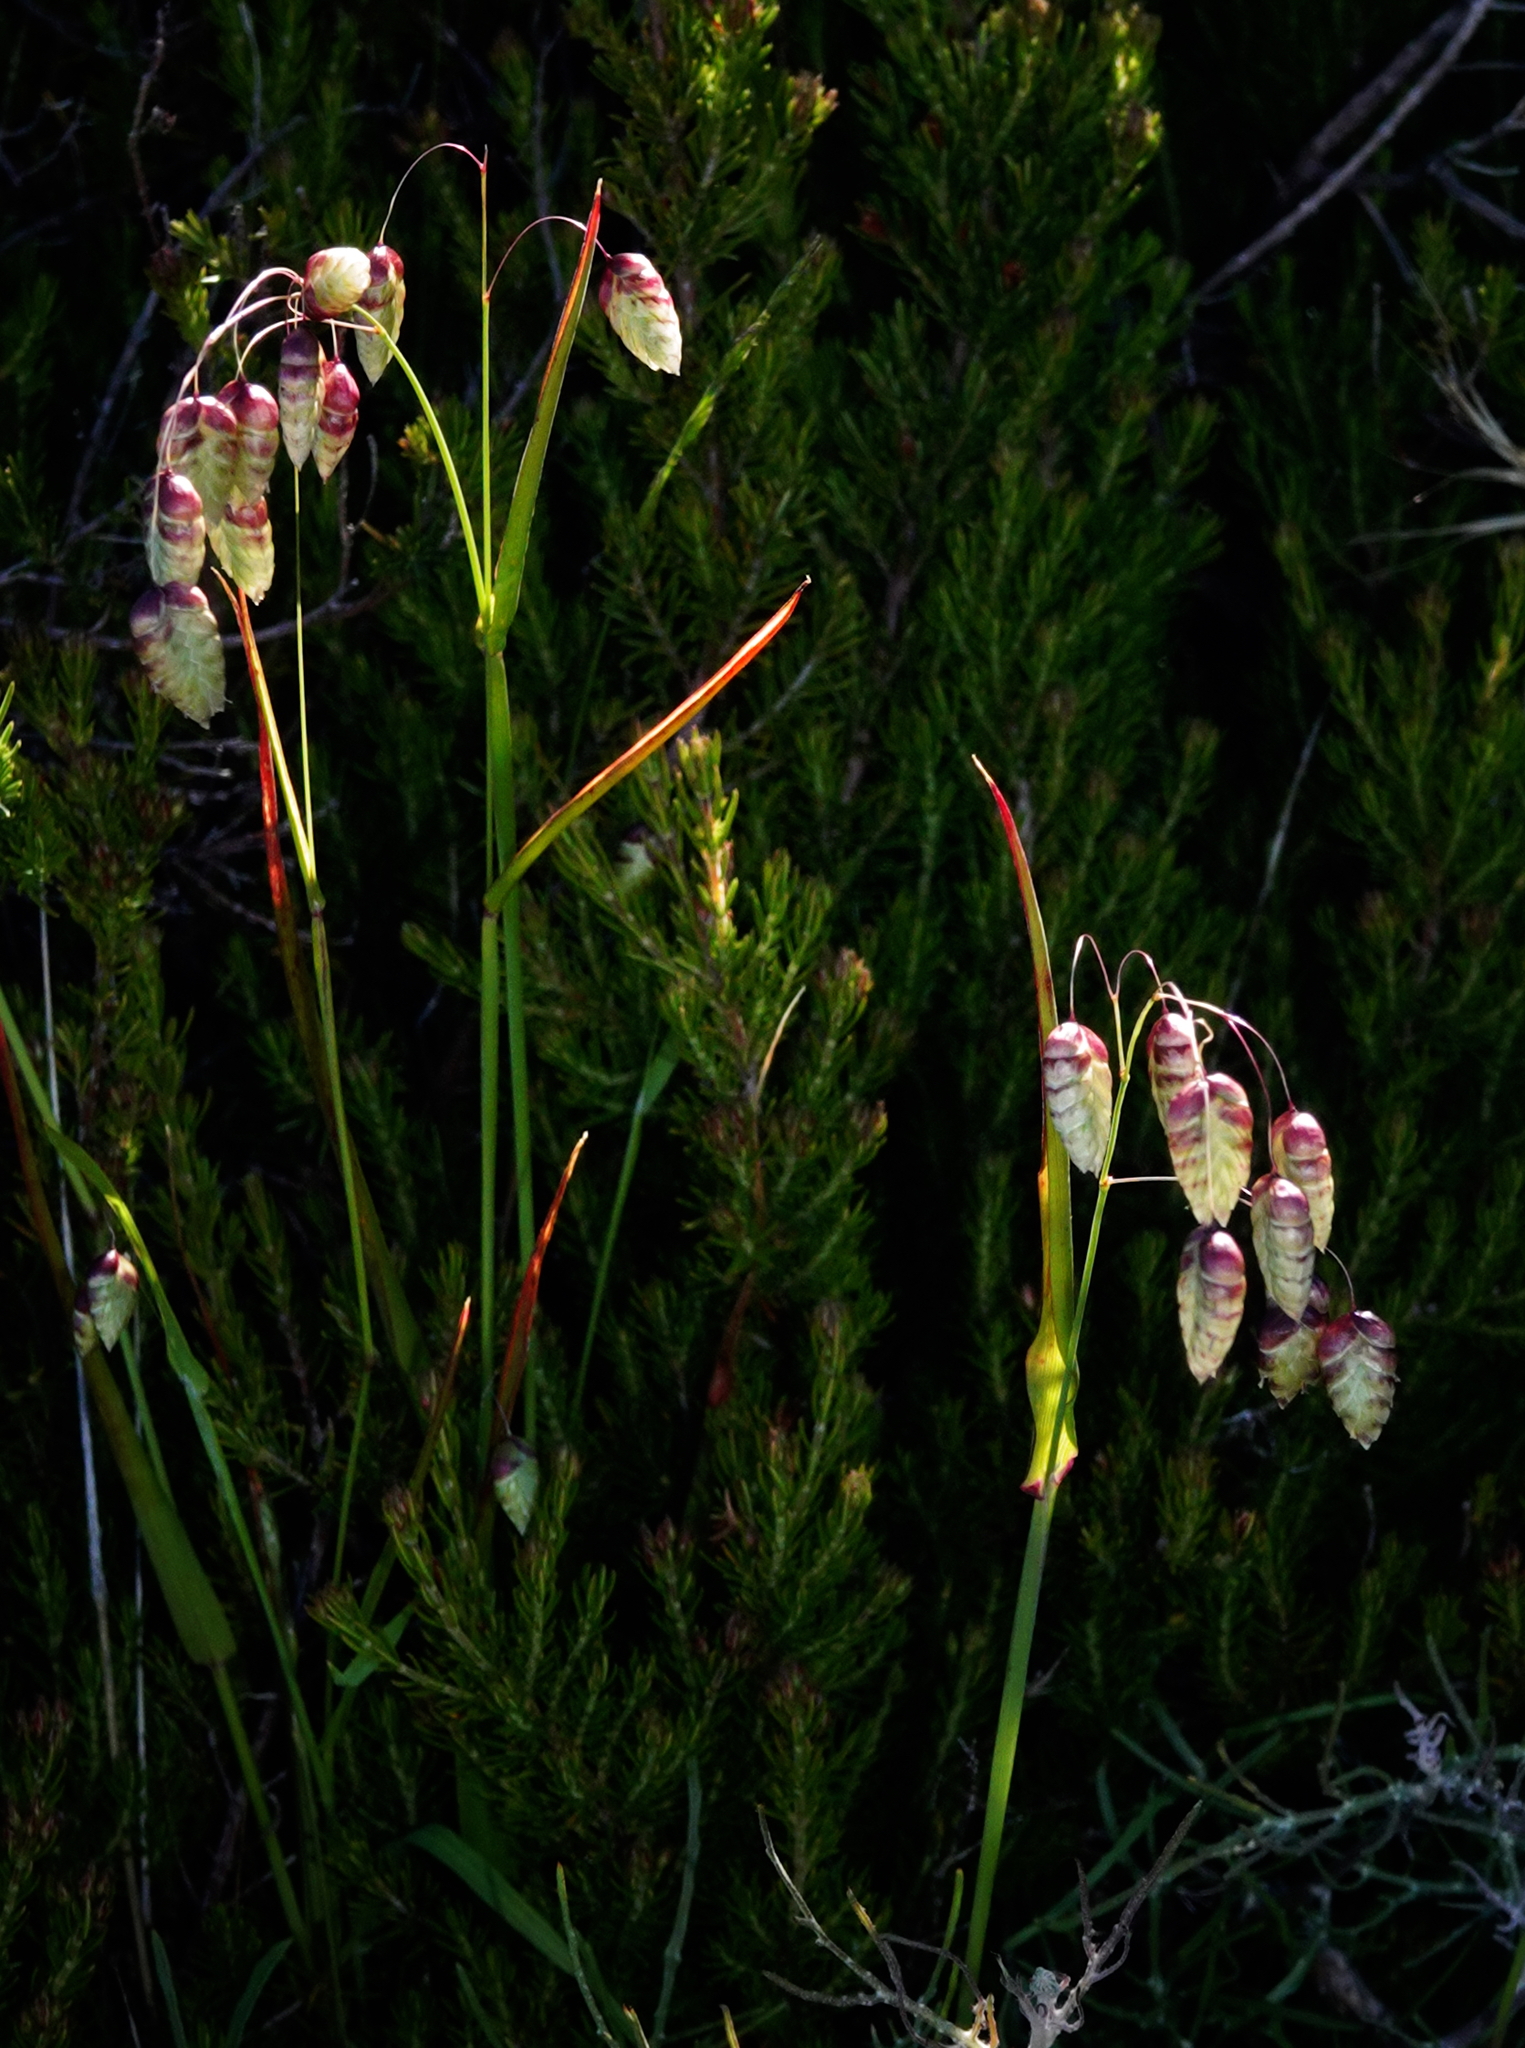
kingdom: Plantae
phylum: Tracheophyta
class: Liliopsida
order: Poales
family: Poaceae
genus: Briza
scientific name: Briza maxima
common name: Big quakinggrass
